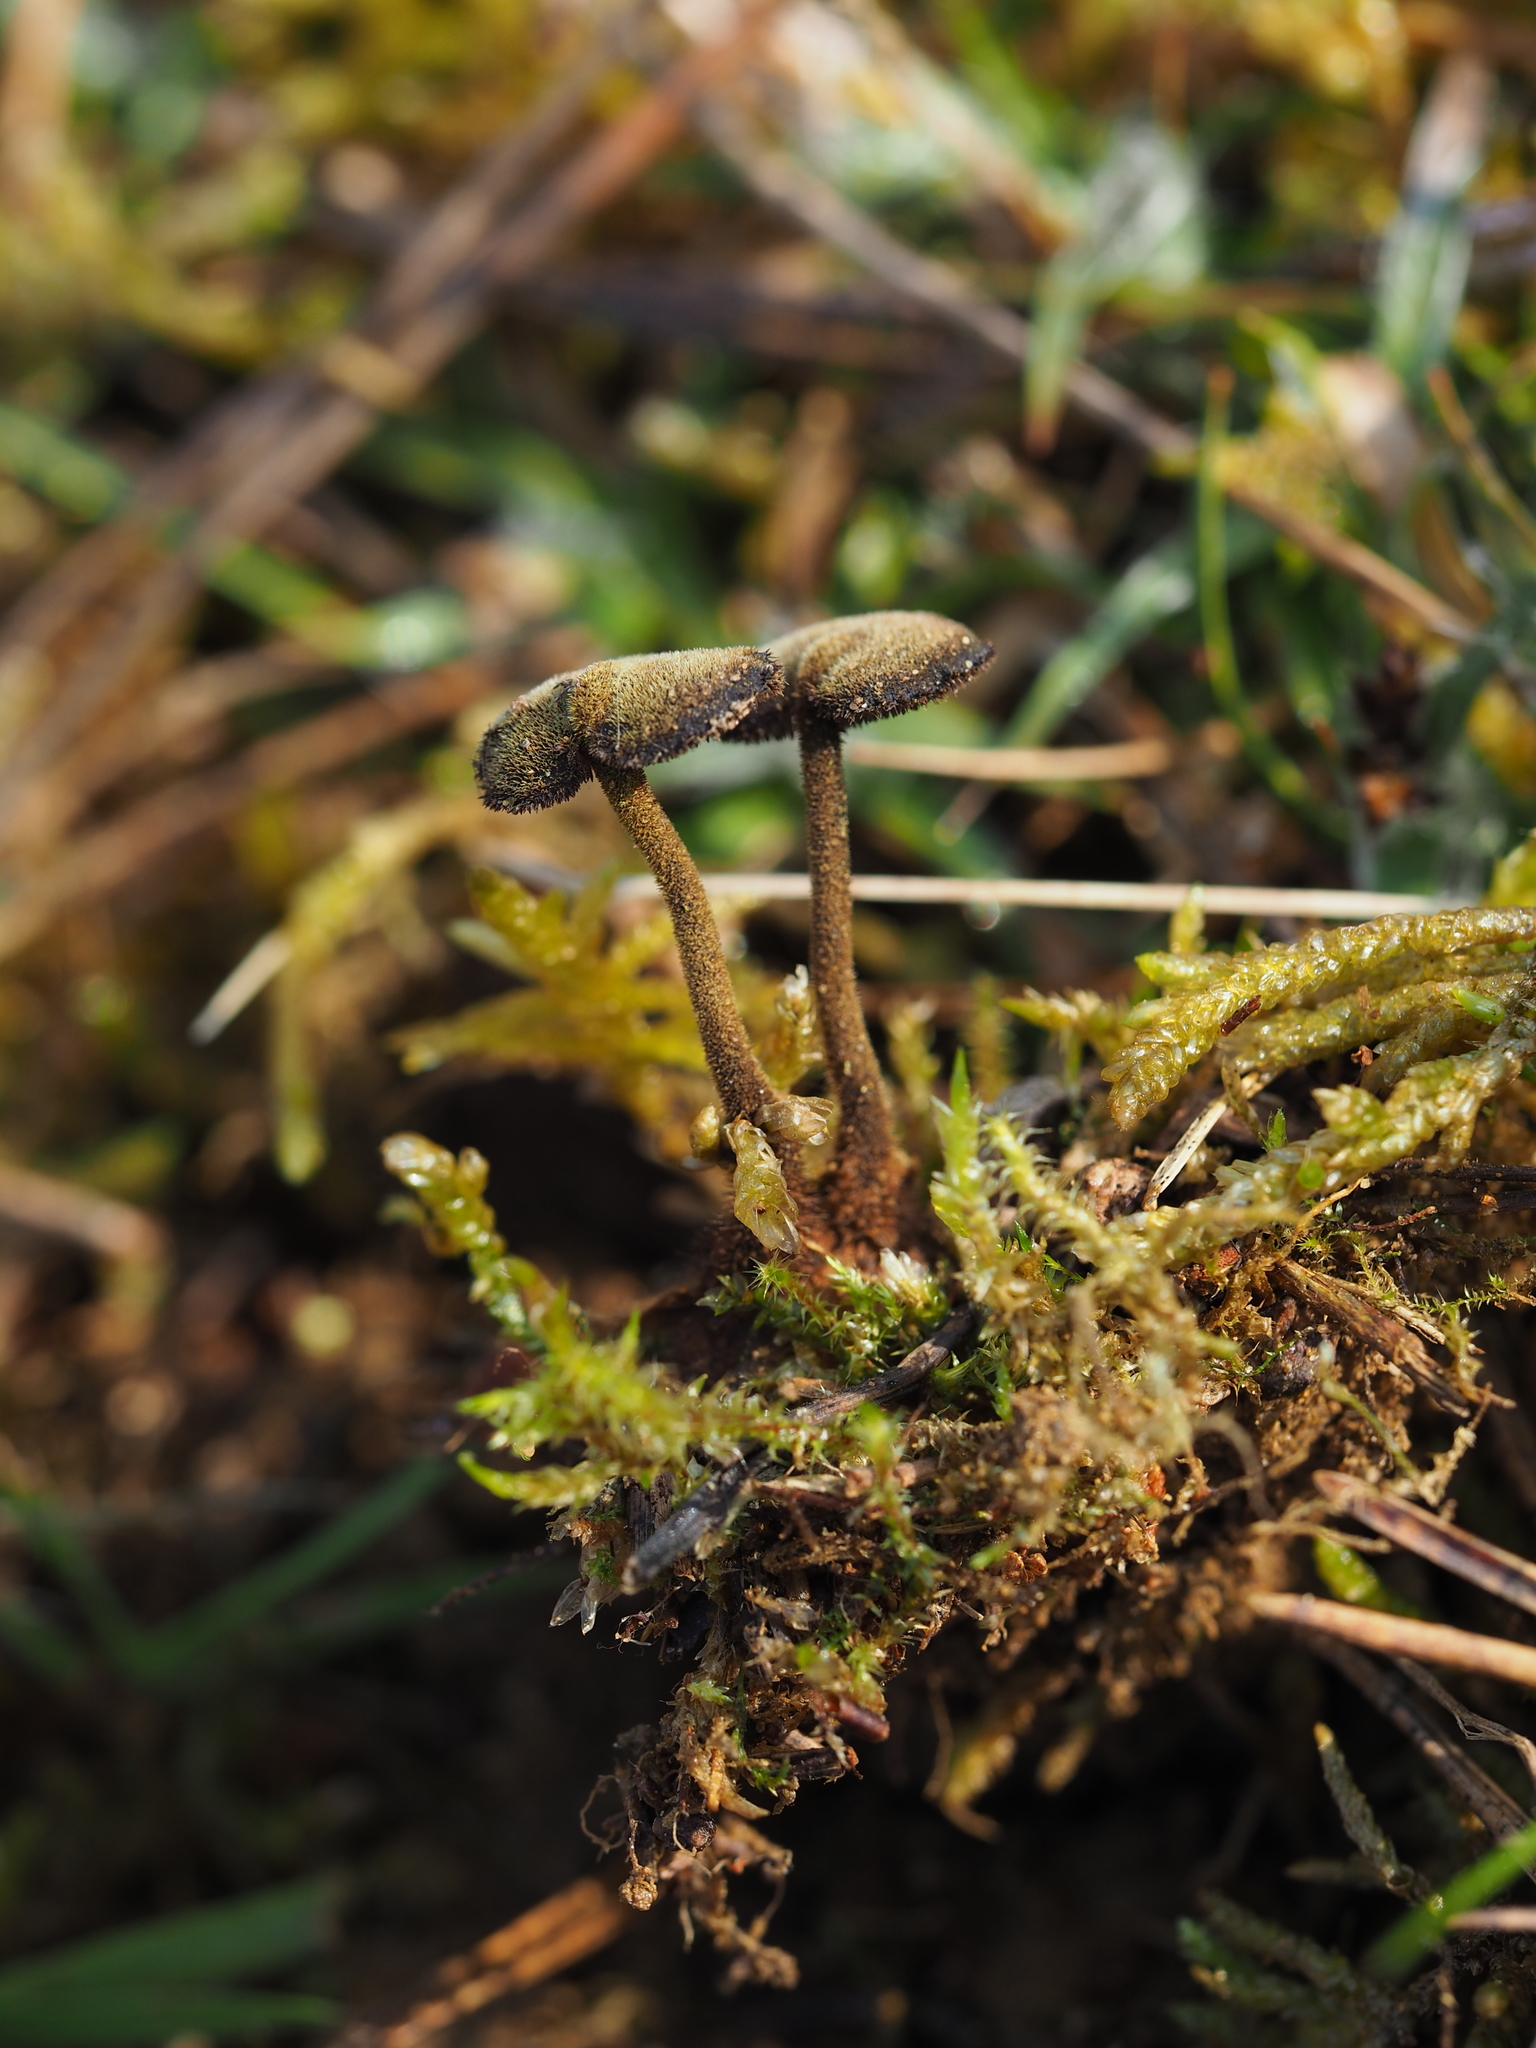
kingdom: Fungi
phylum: Basidiomycota
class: Agaricomycetes
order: Russulales
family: Auriscalpiaceae
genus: Auriscalpium
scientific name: Auriscalpium vulgare
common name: Earpick fungus
